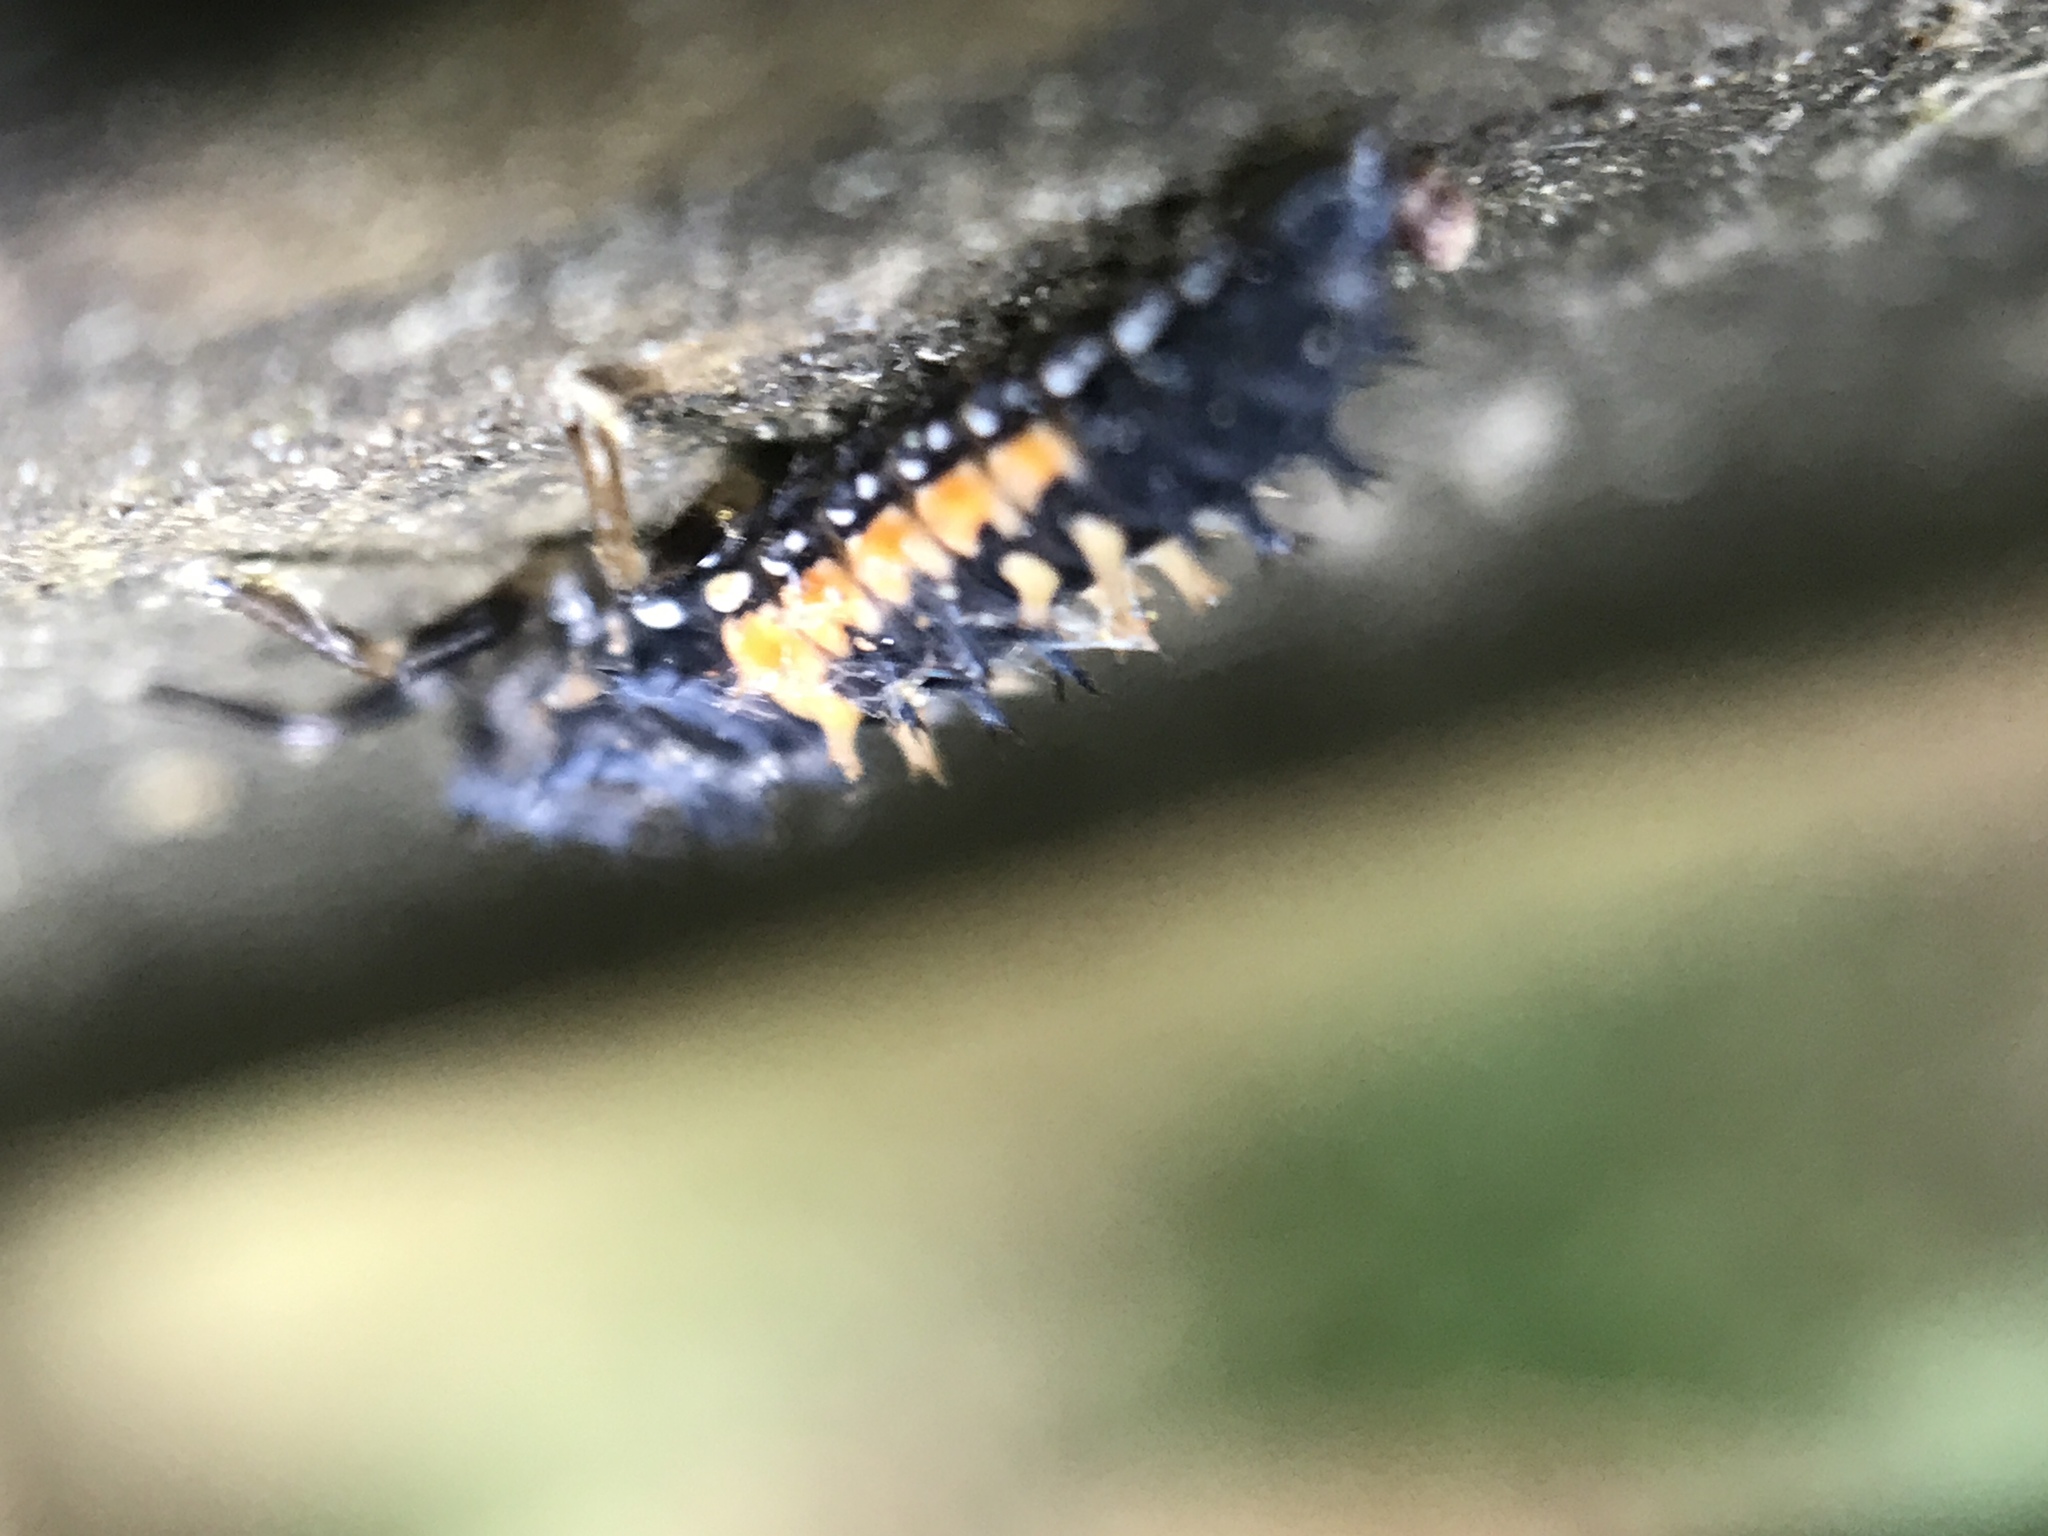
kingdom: Animalia
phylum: Arthropoda
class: Insecta
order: Coleoptera
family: Coccinellidae
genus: Harmonia
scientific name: Harmonia axyridis
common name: Harlequin ladybird
